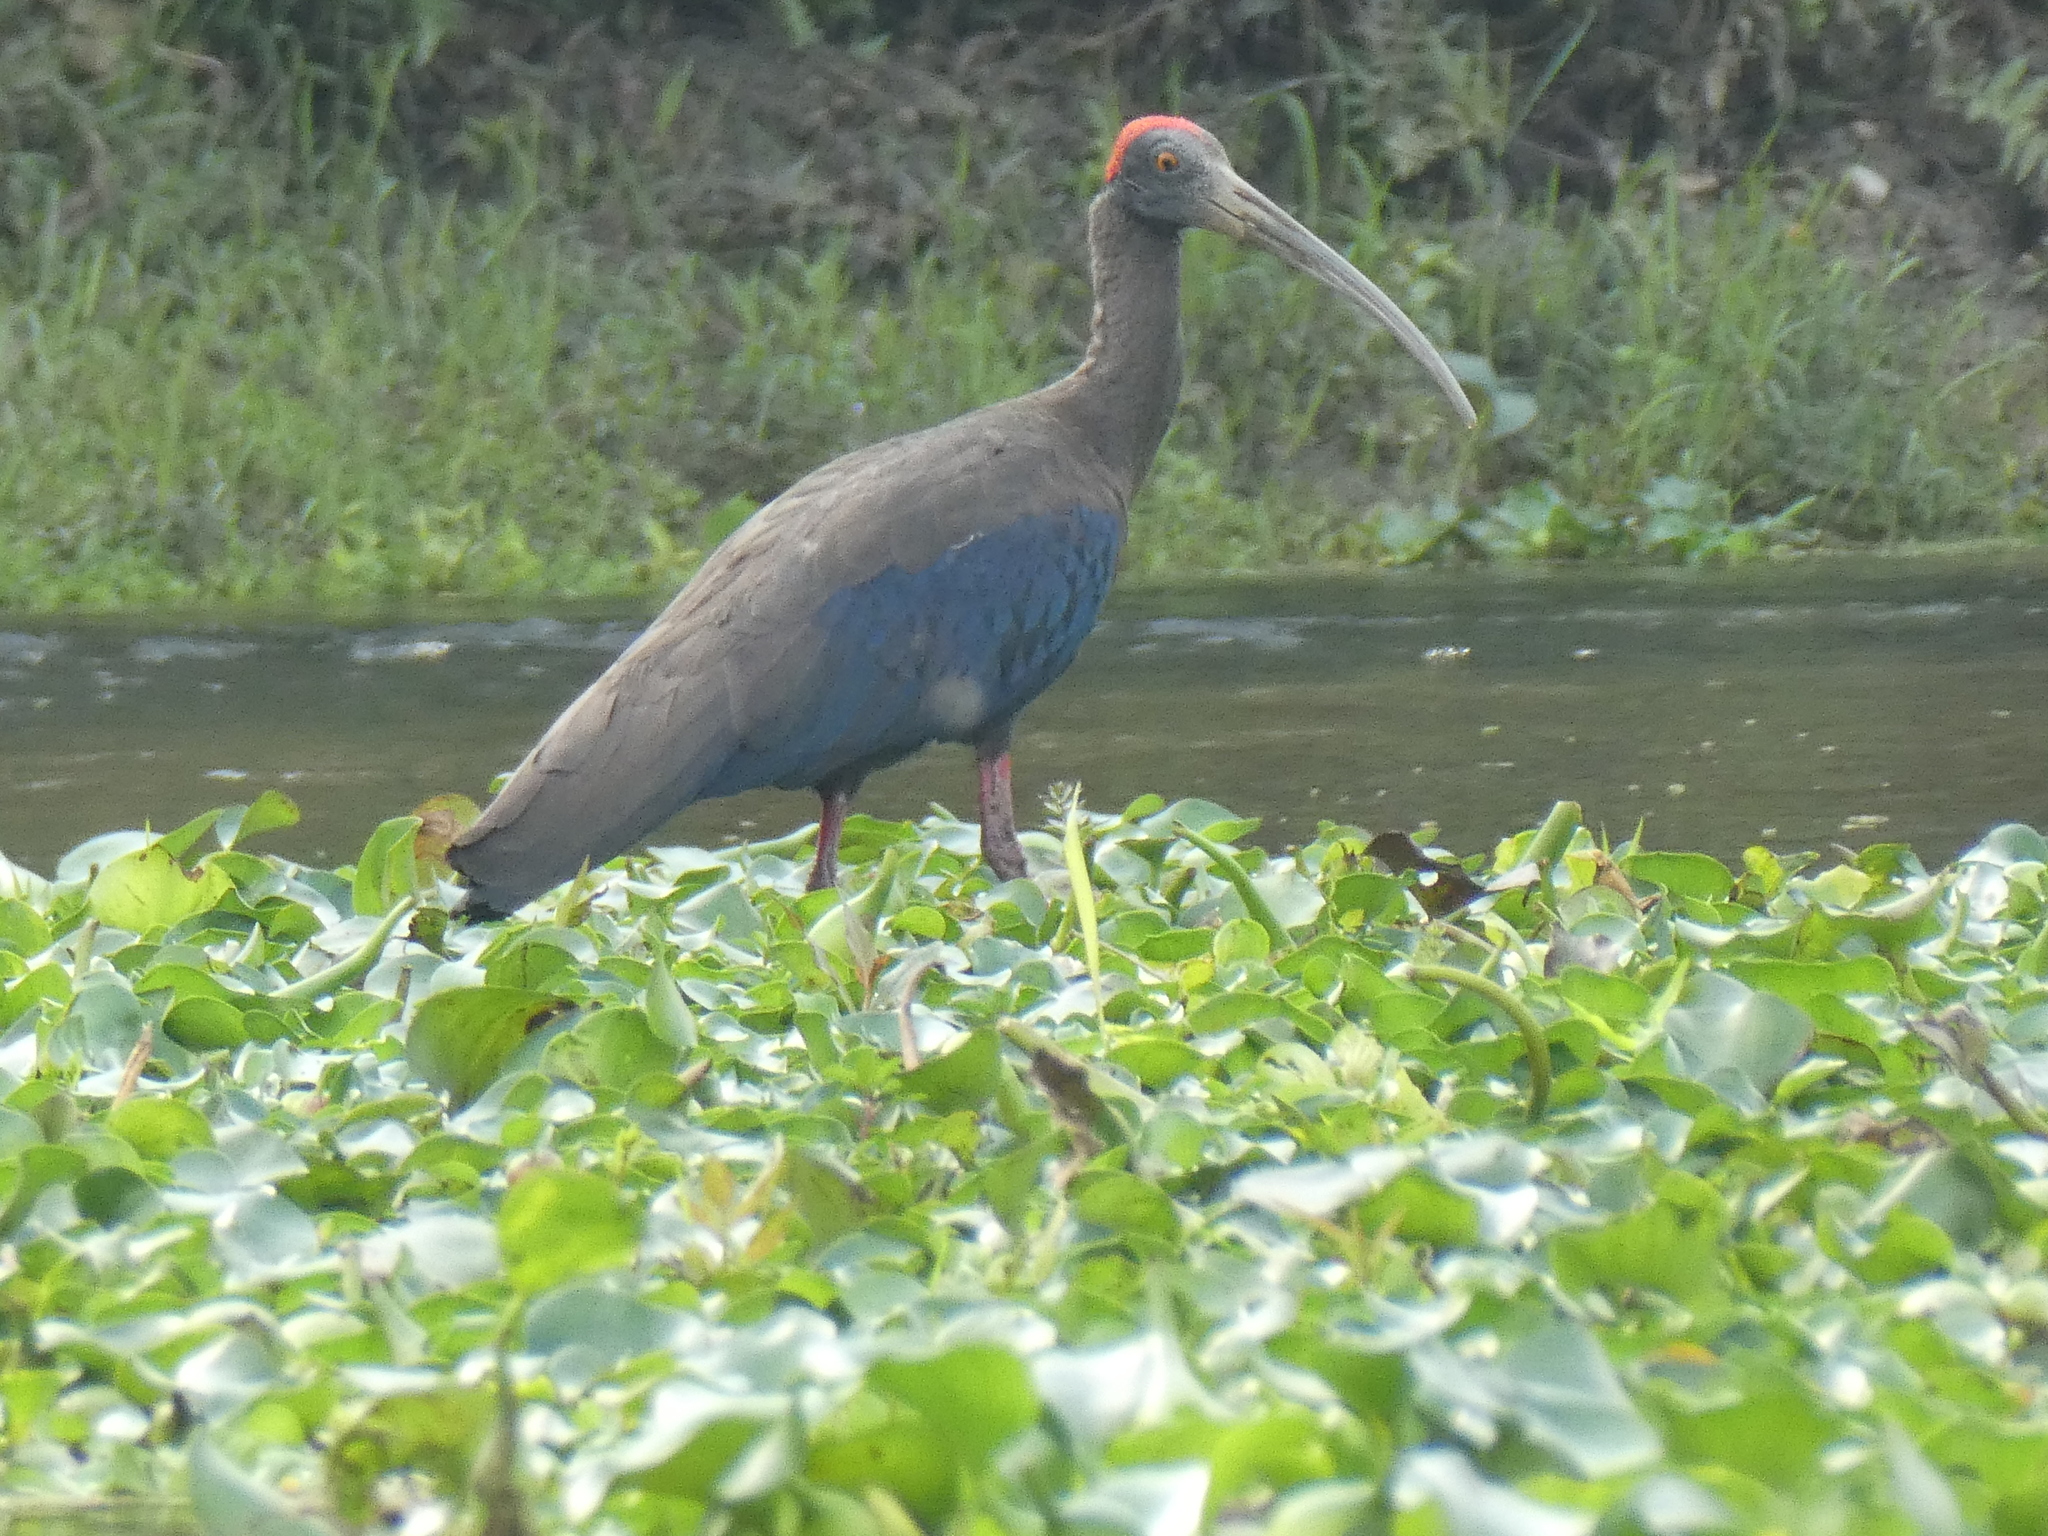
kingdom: Animalia
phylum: Chordata
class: Aves
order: Pelecaniformes
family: Threskiornithidae
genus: Pseudibis
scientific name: Pseudibis papillosa
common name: Red-naped ibis
